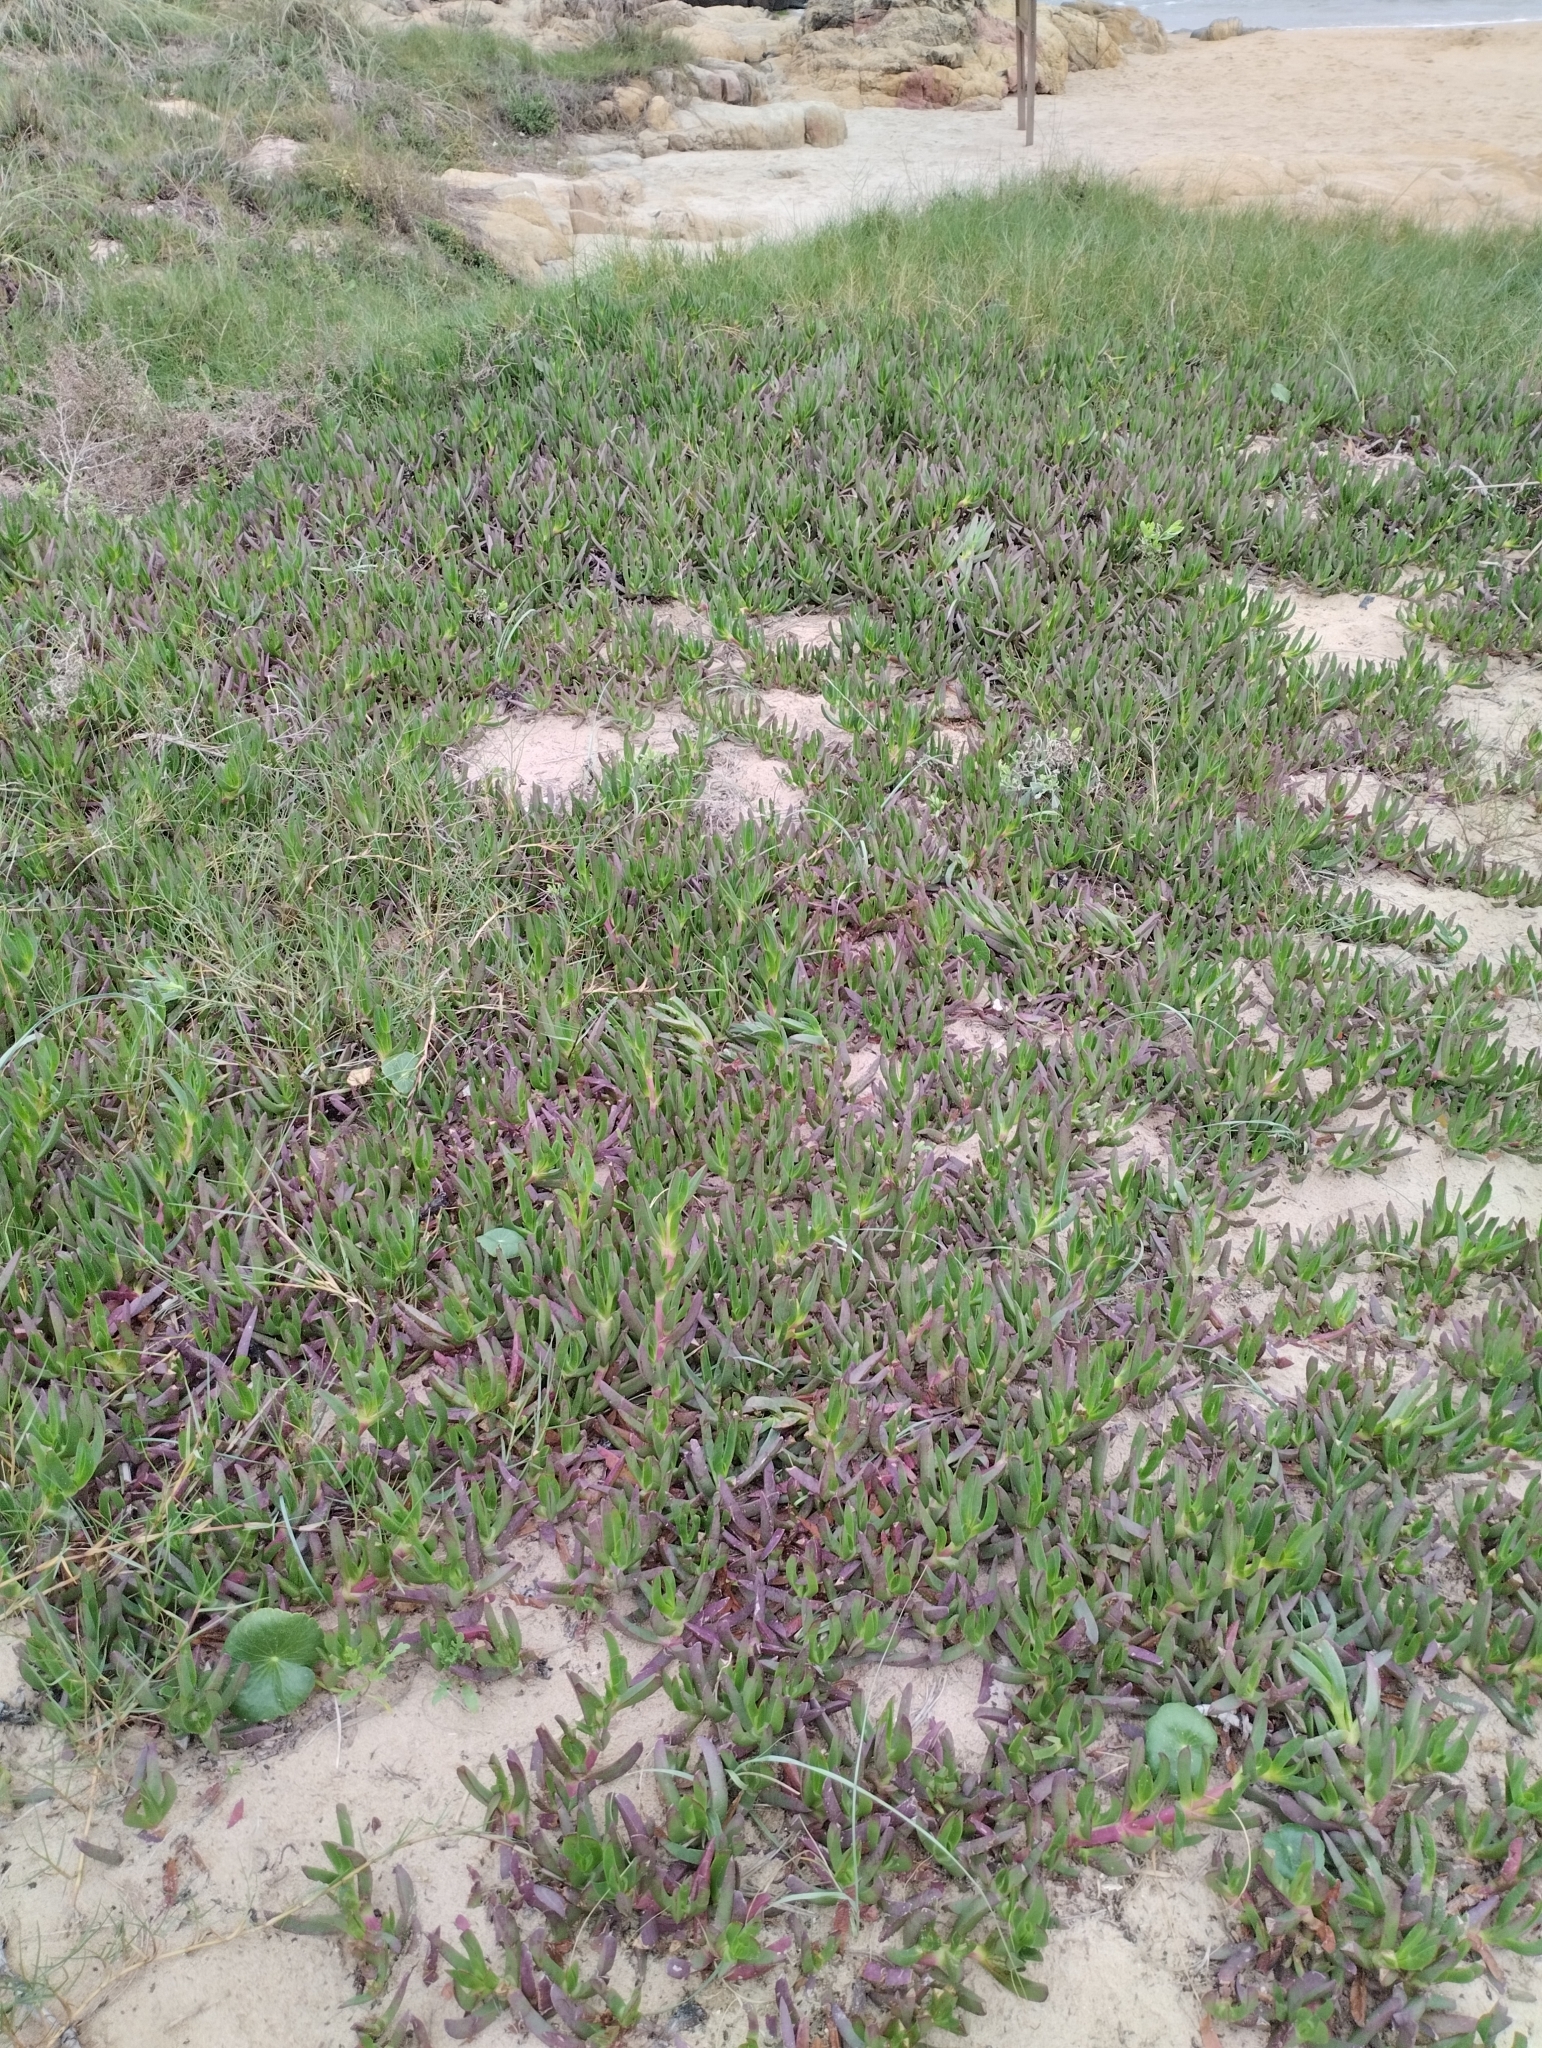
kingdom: Plantae
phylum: Tracheophyta
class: Magnoliopsida
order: Caryophyllales
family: Aizoaceae
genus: Carpobrotus
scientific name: Carpobrotus edulis
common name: Hottentot-fig
